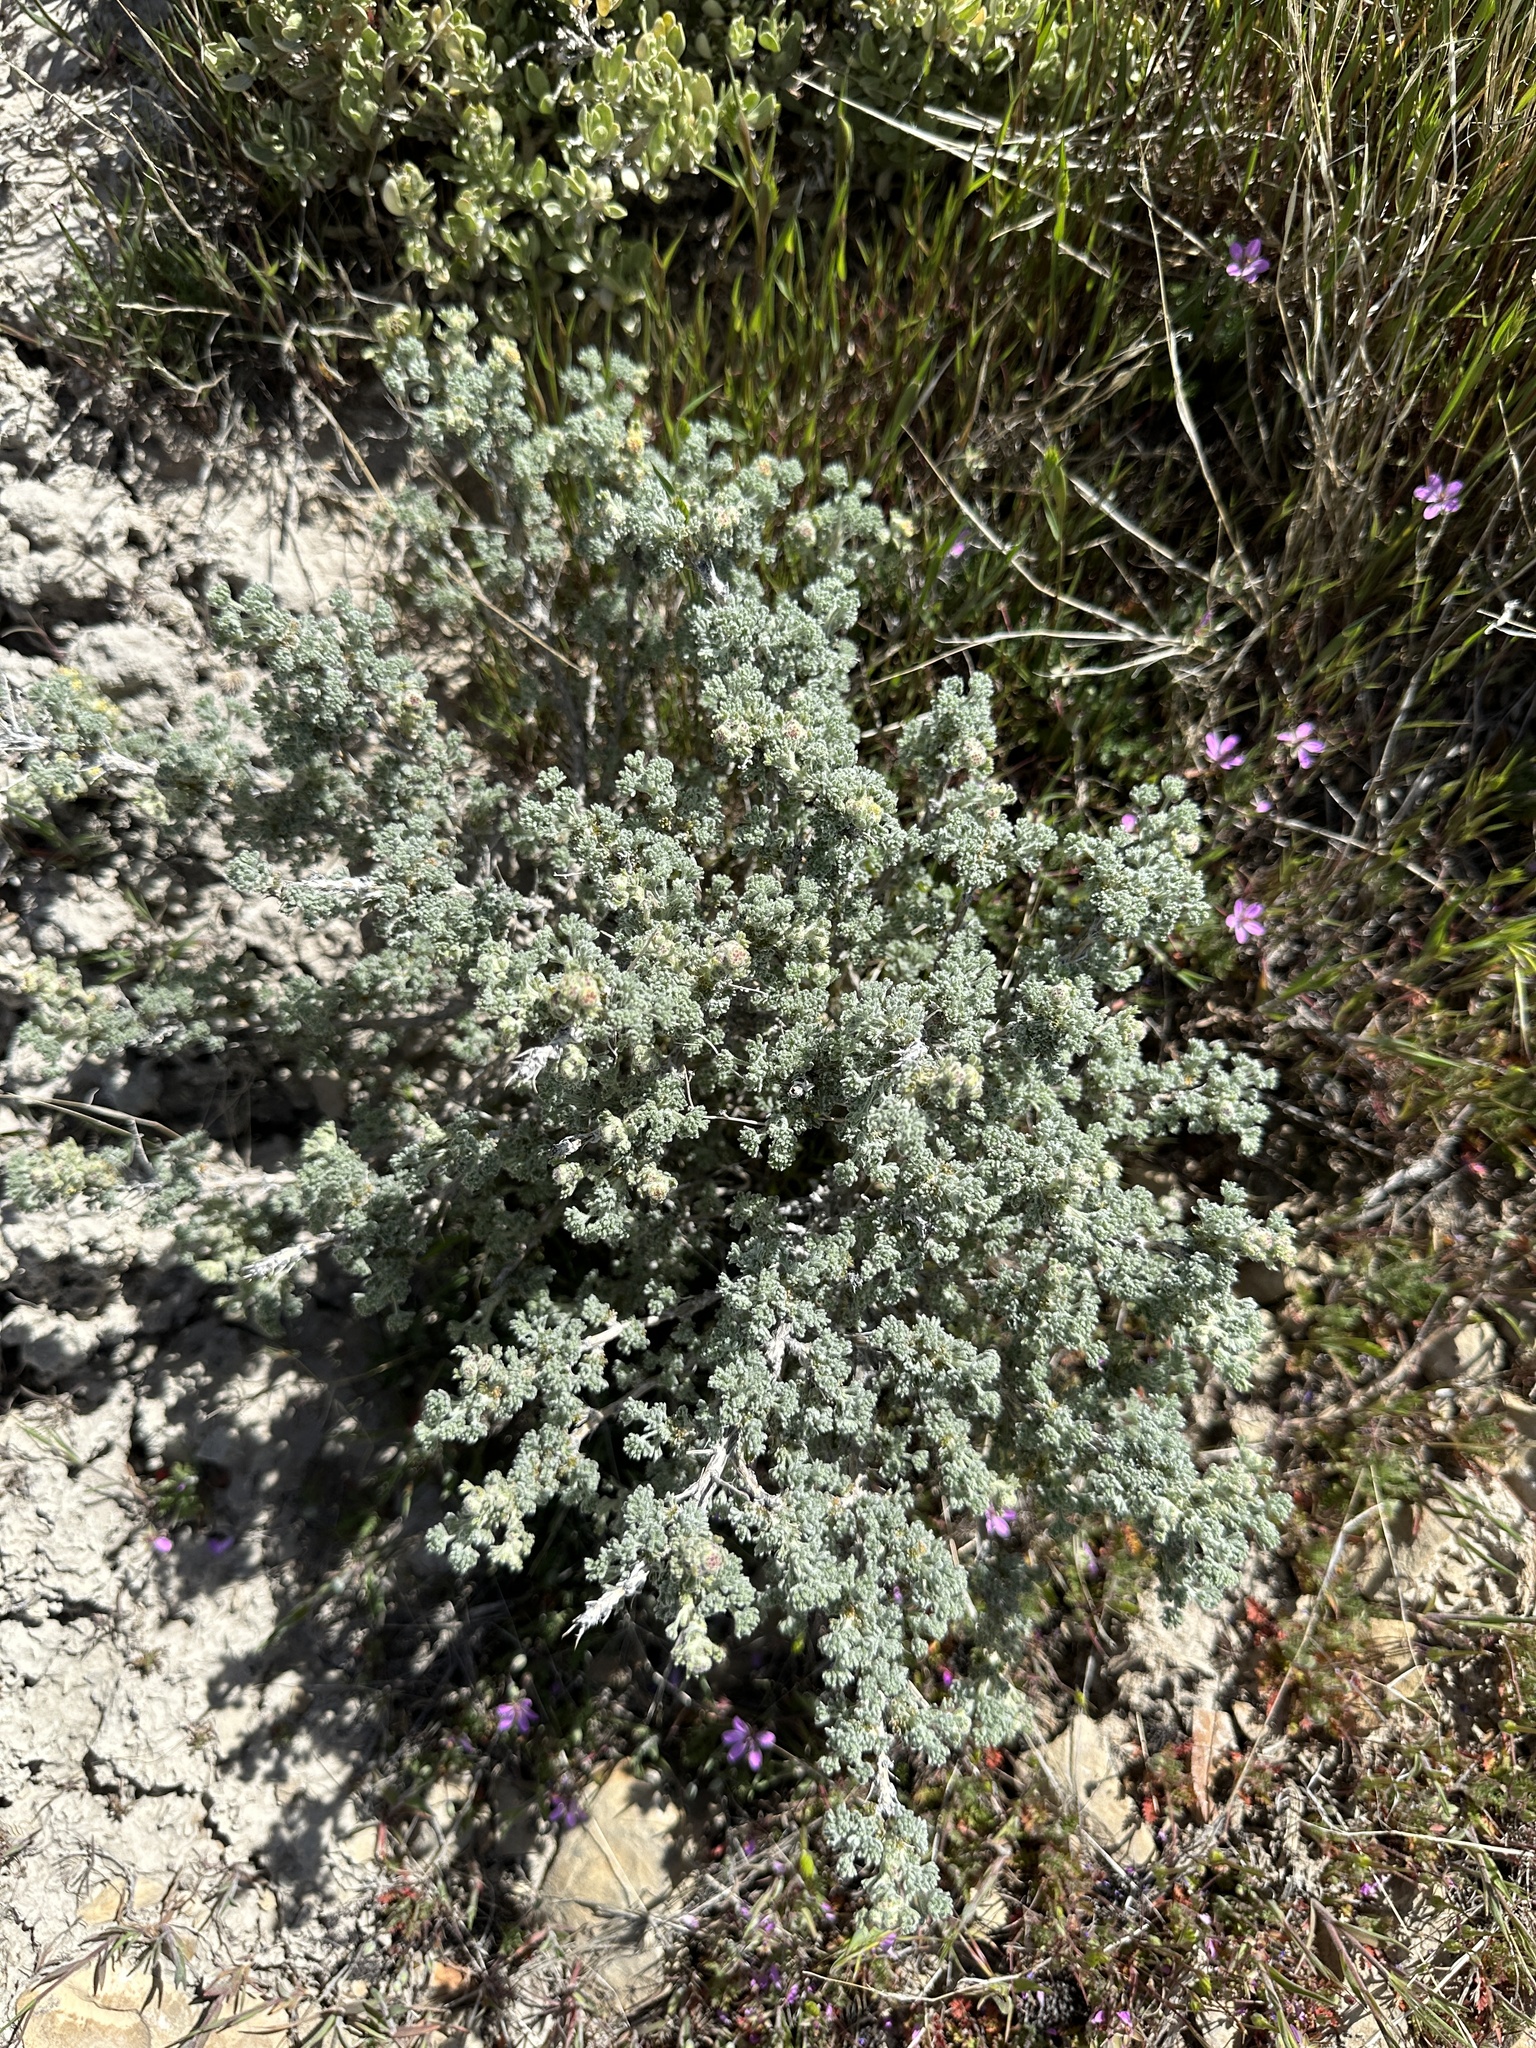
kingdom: Plantae
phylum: Tracheophyta
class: Magnoliopsida
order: Asterales
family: Asteraceae
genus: Artemisia
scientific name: Artemisia spinescens
